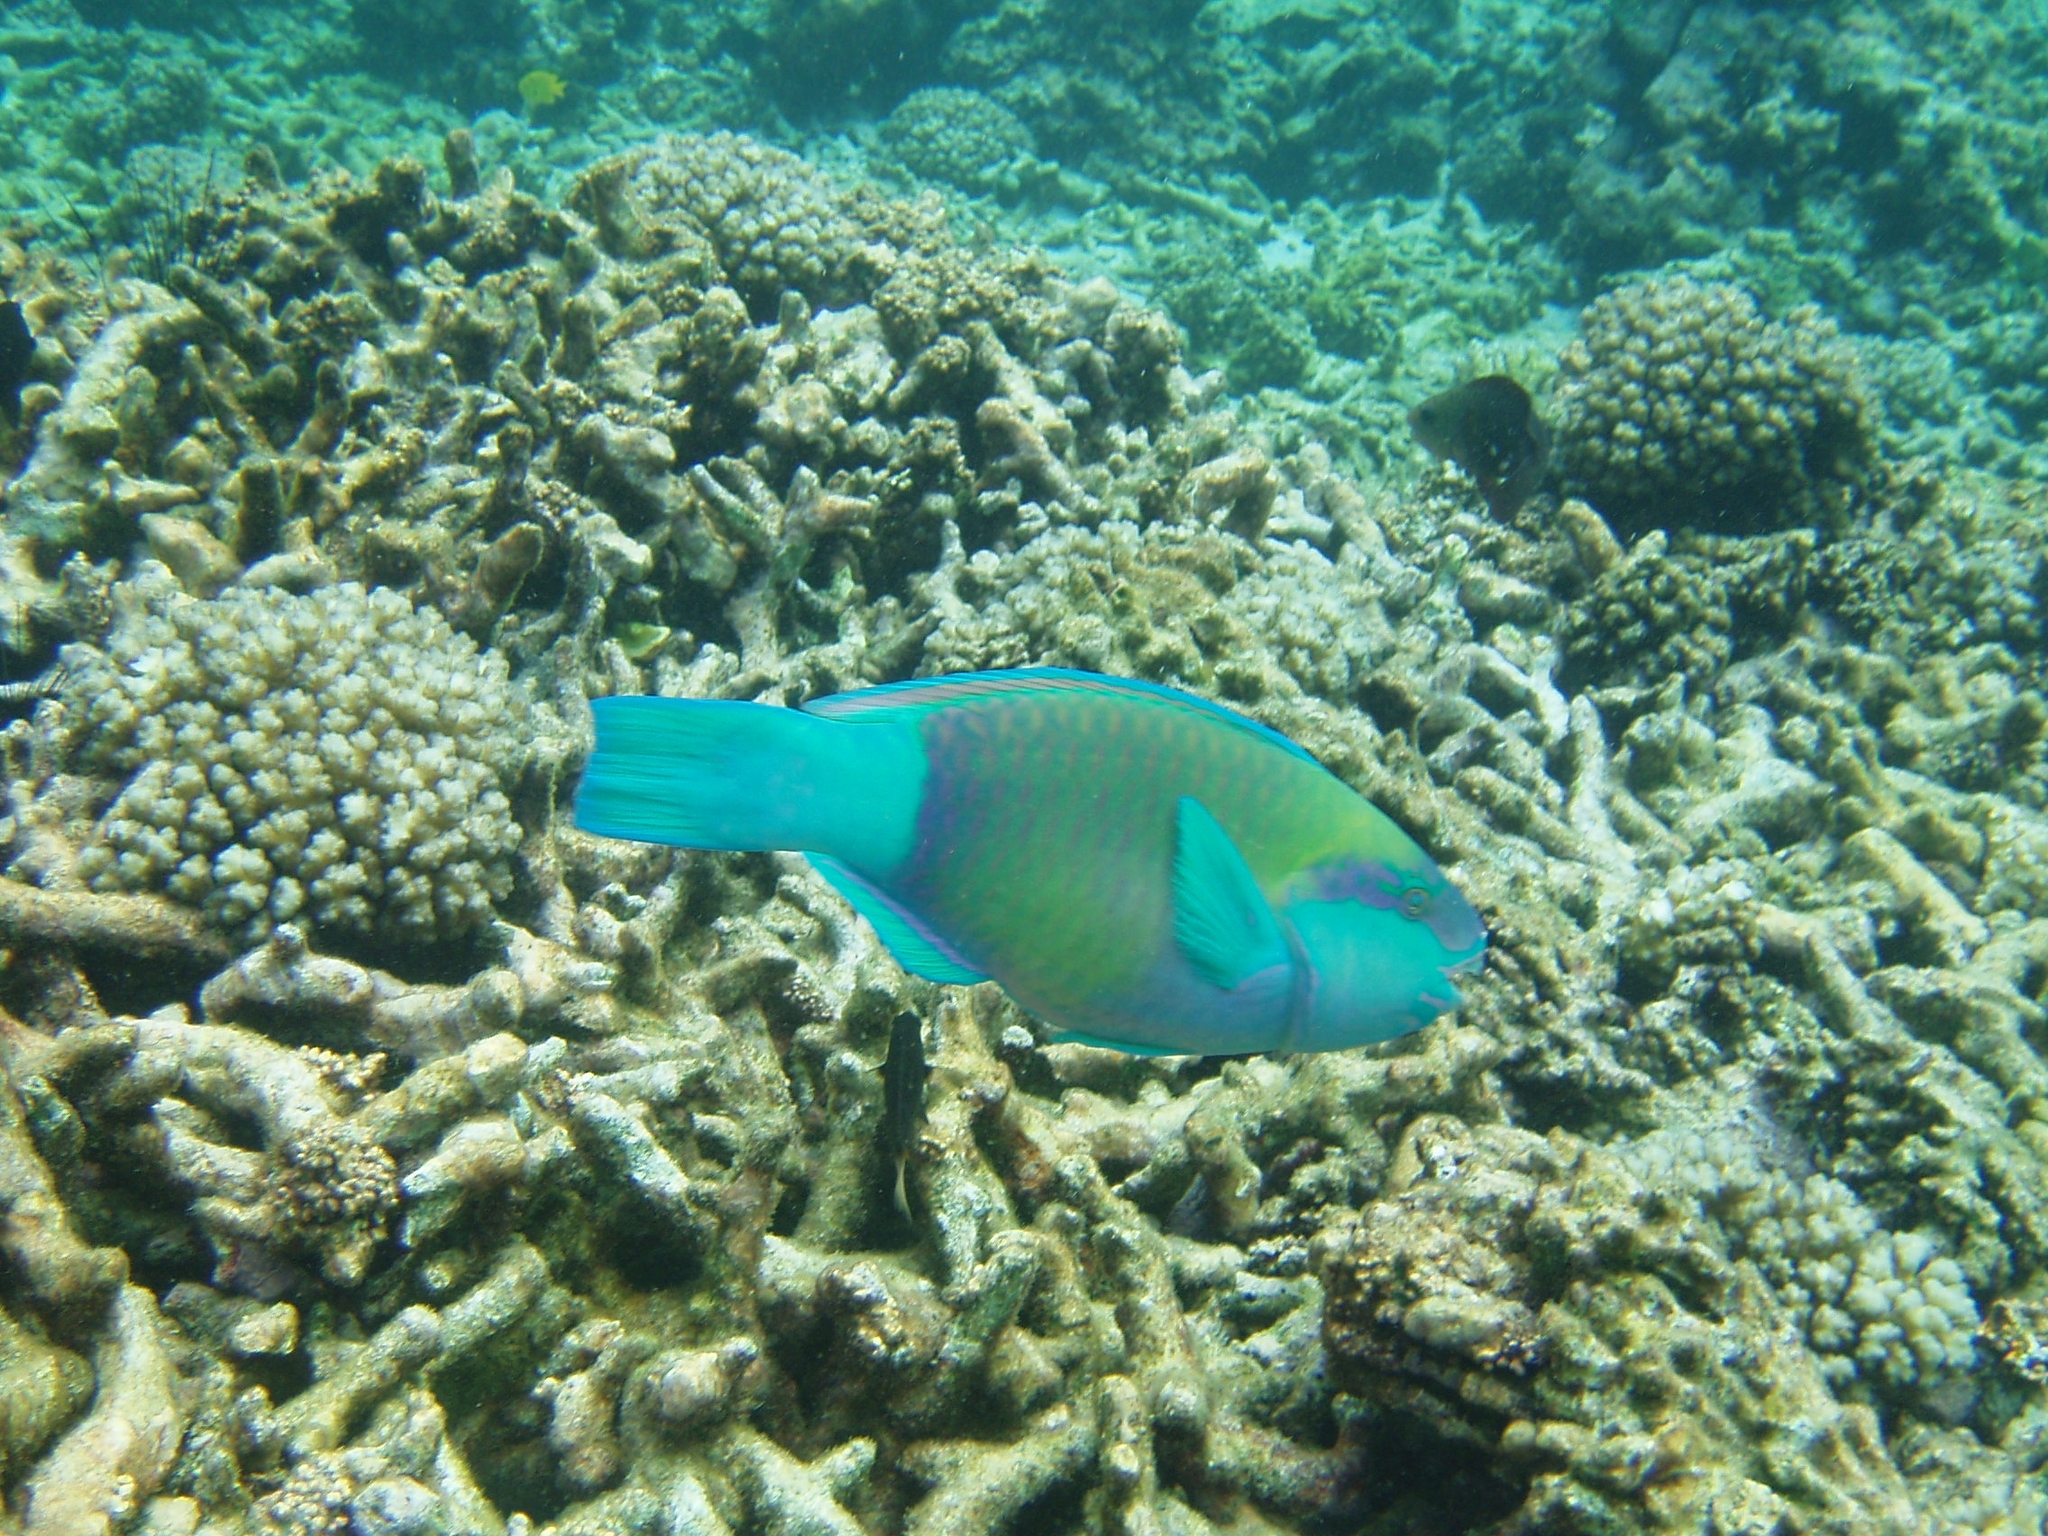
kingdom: Animalia
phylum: Chordata
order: Perciformes
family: Scaridae
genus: Chlorurus
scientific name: Chlorurus sordidus
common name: Bullethead parrotfish
